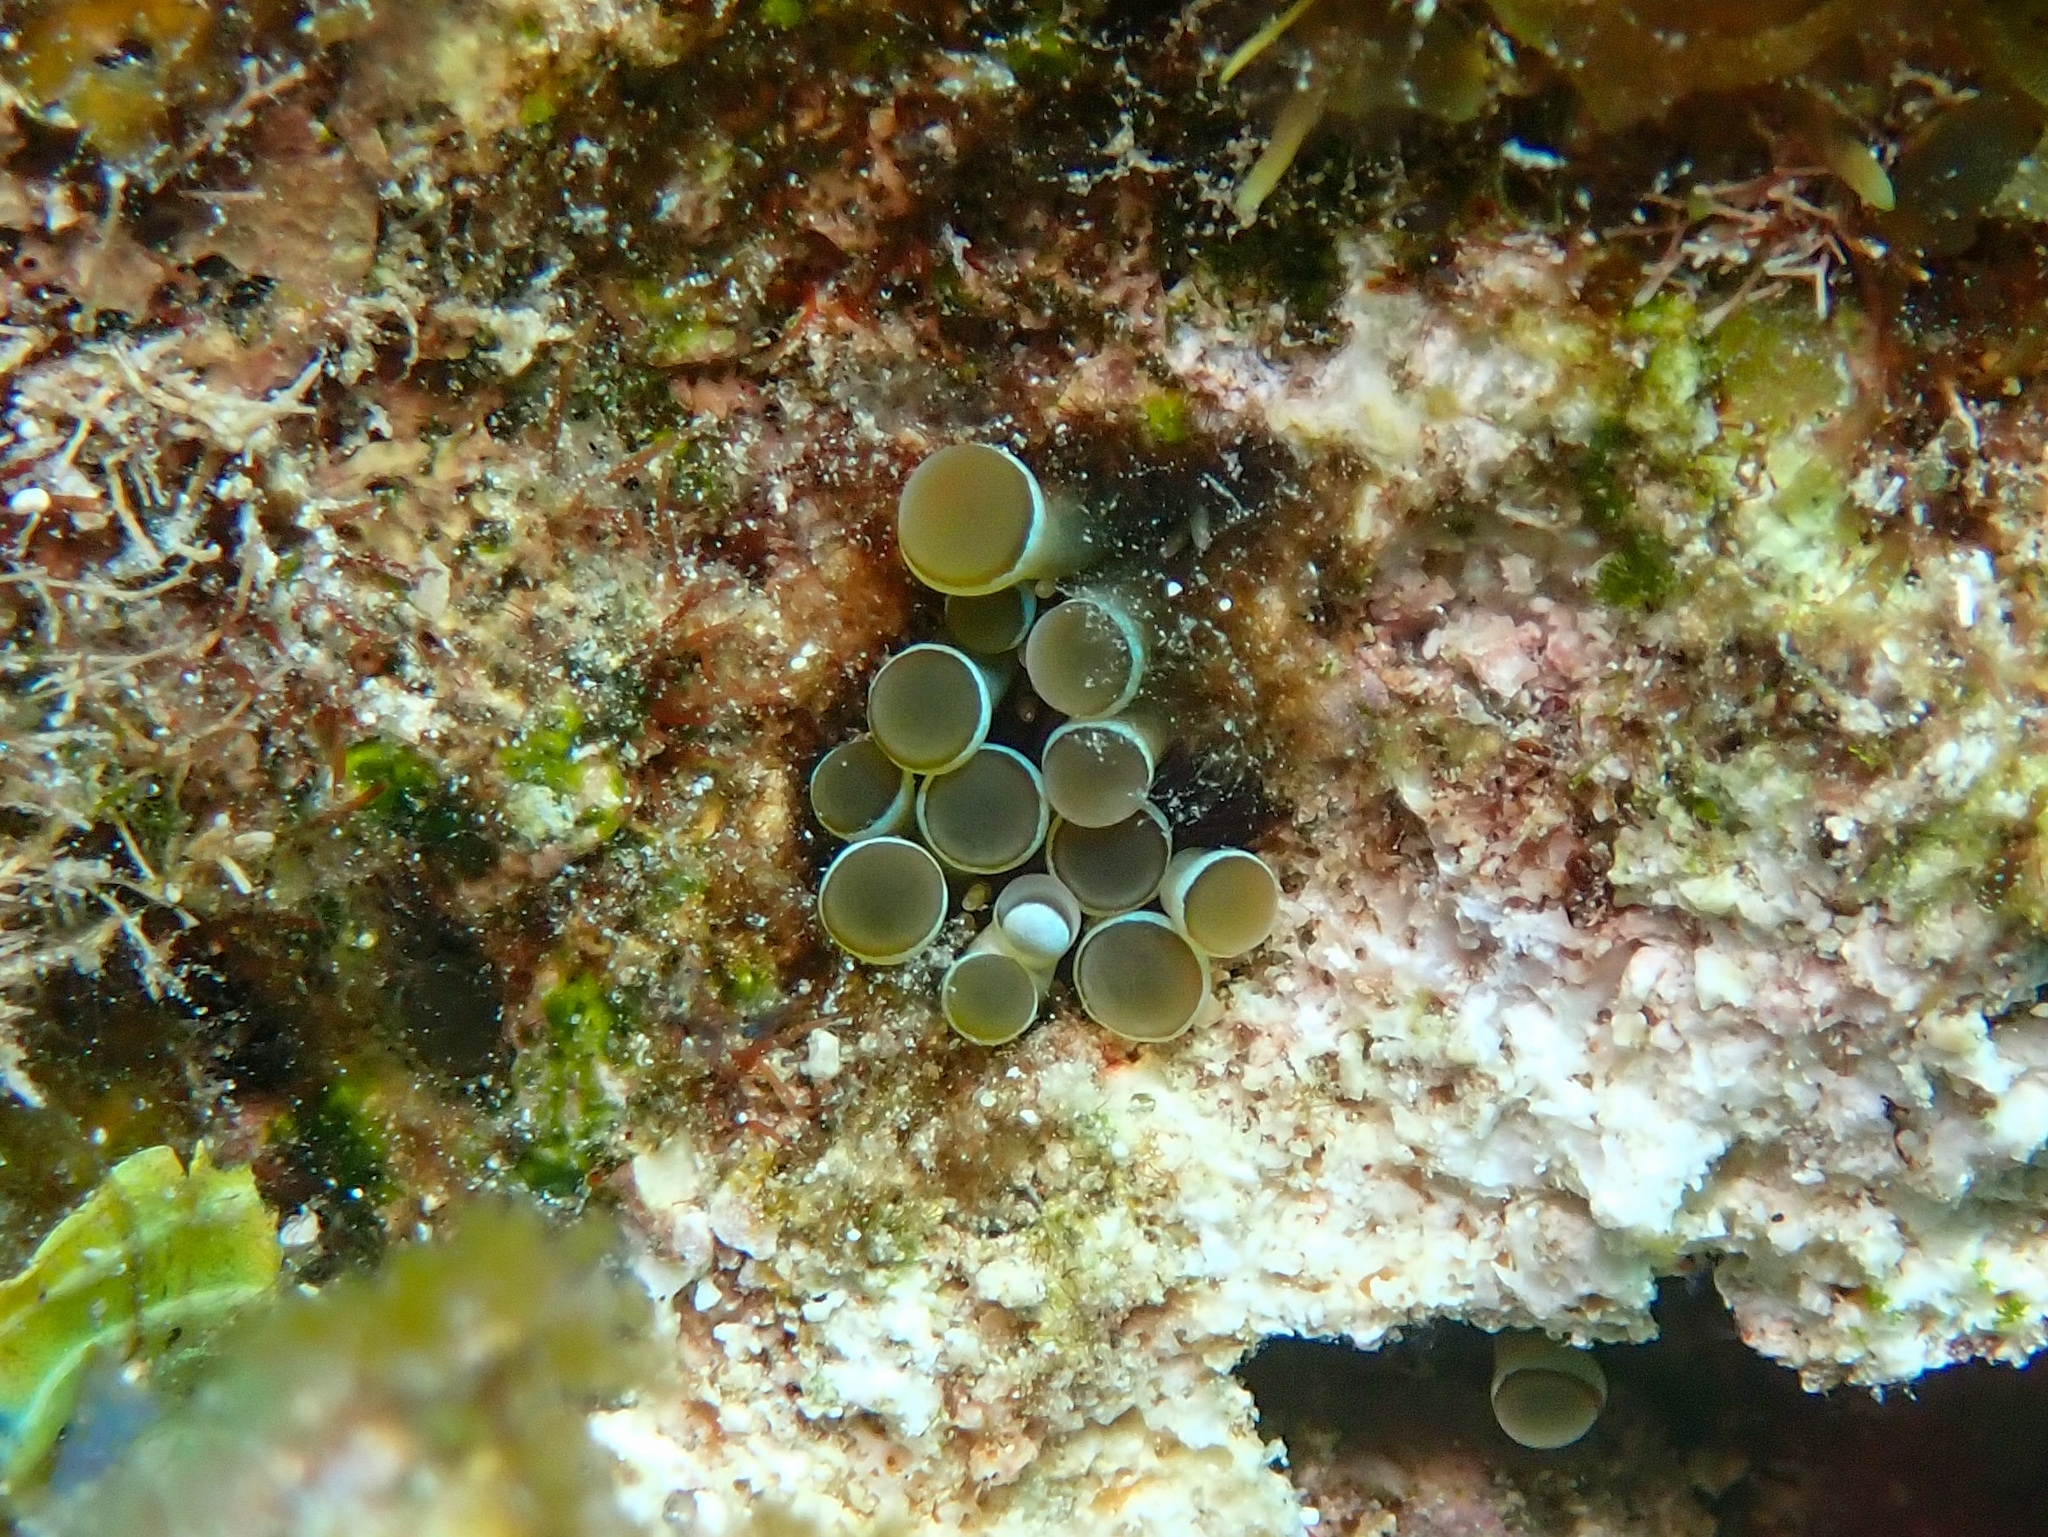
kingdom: Animalia
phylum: Cnidaria
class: Anthozoa
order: Actiniaria
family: Aliciidae
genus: Lebrunia
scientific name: Lebrunia coralligens
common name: Hidden anemone
